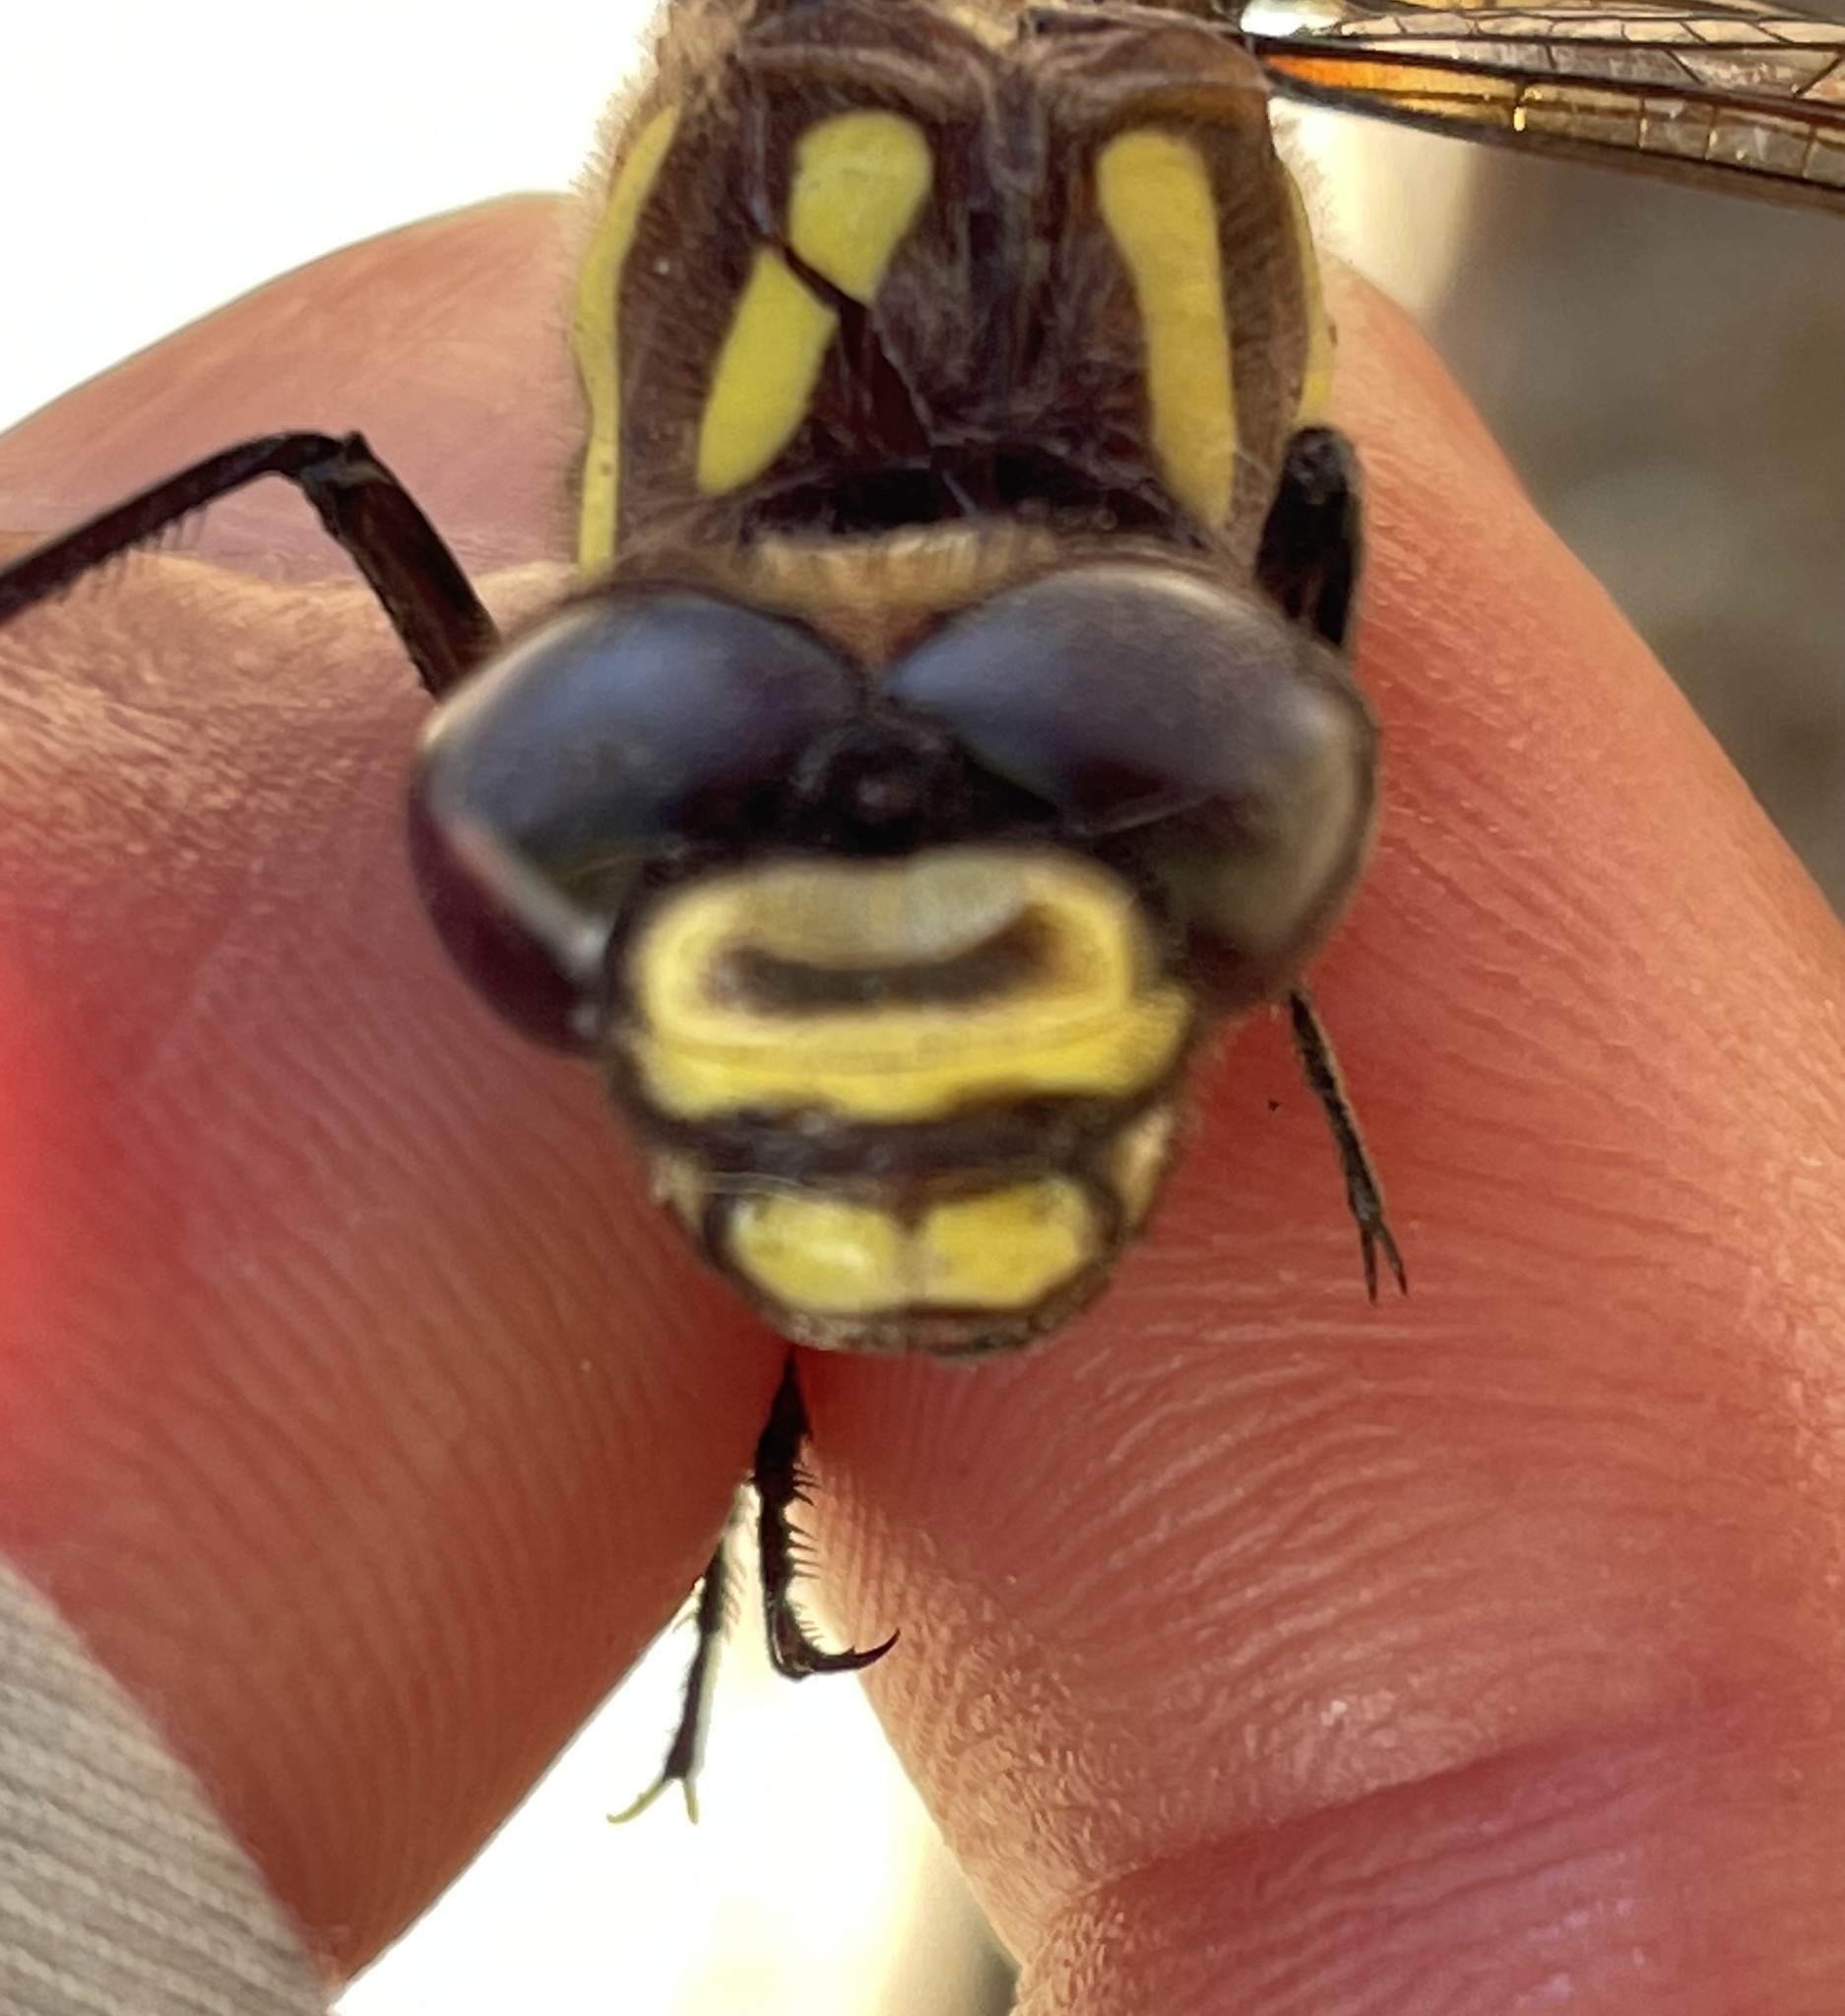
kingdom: Animalia
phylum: Arthropoda
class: Insecta
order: Odonata
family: Cordulegastridae
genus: Cordulegaster
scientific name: Cordulegaster dorsalis
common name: Pacific spiketail
